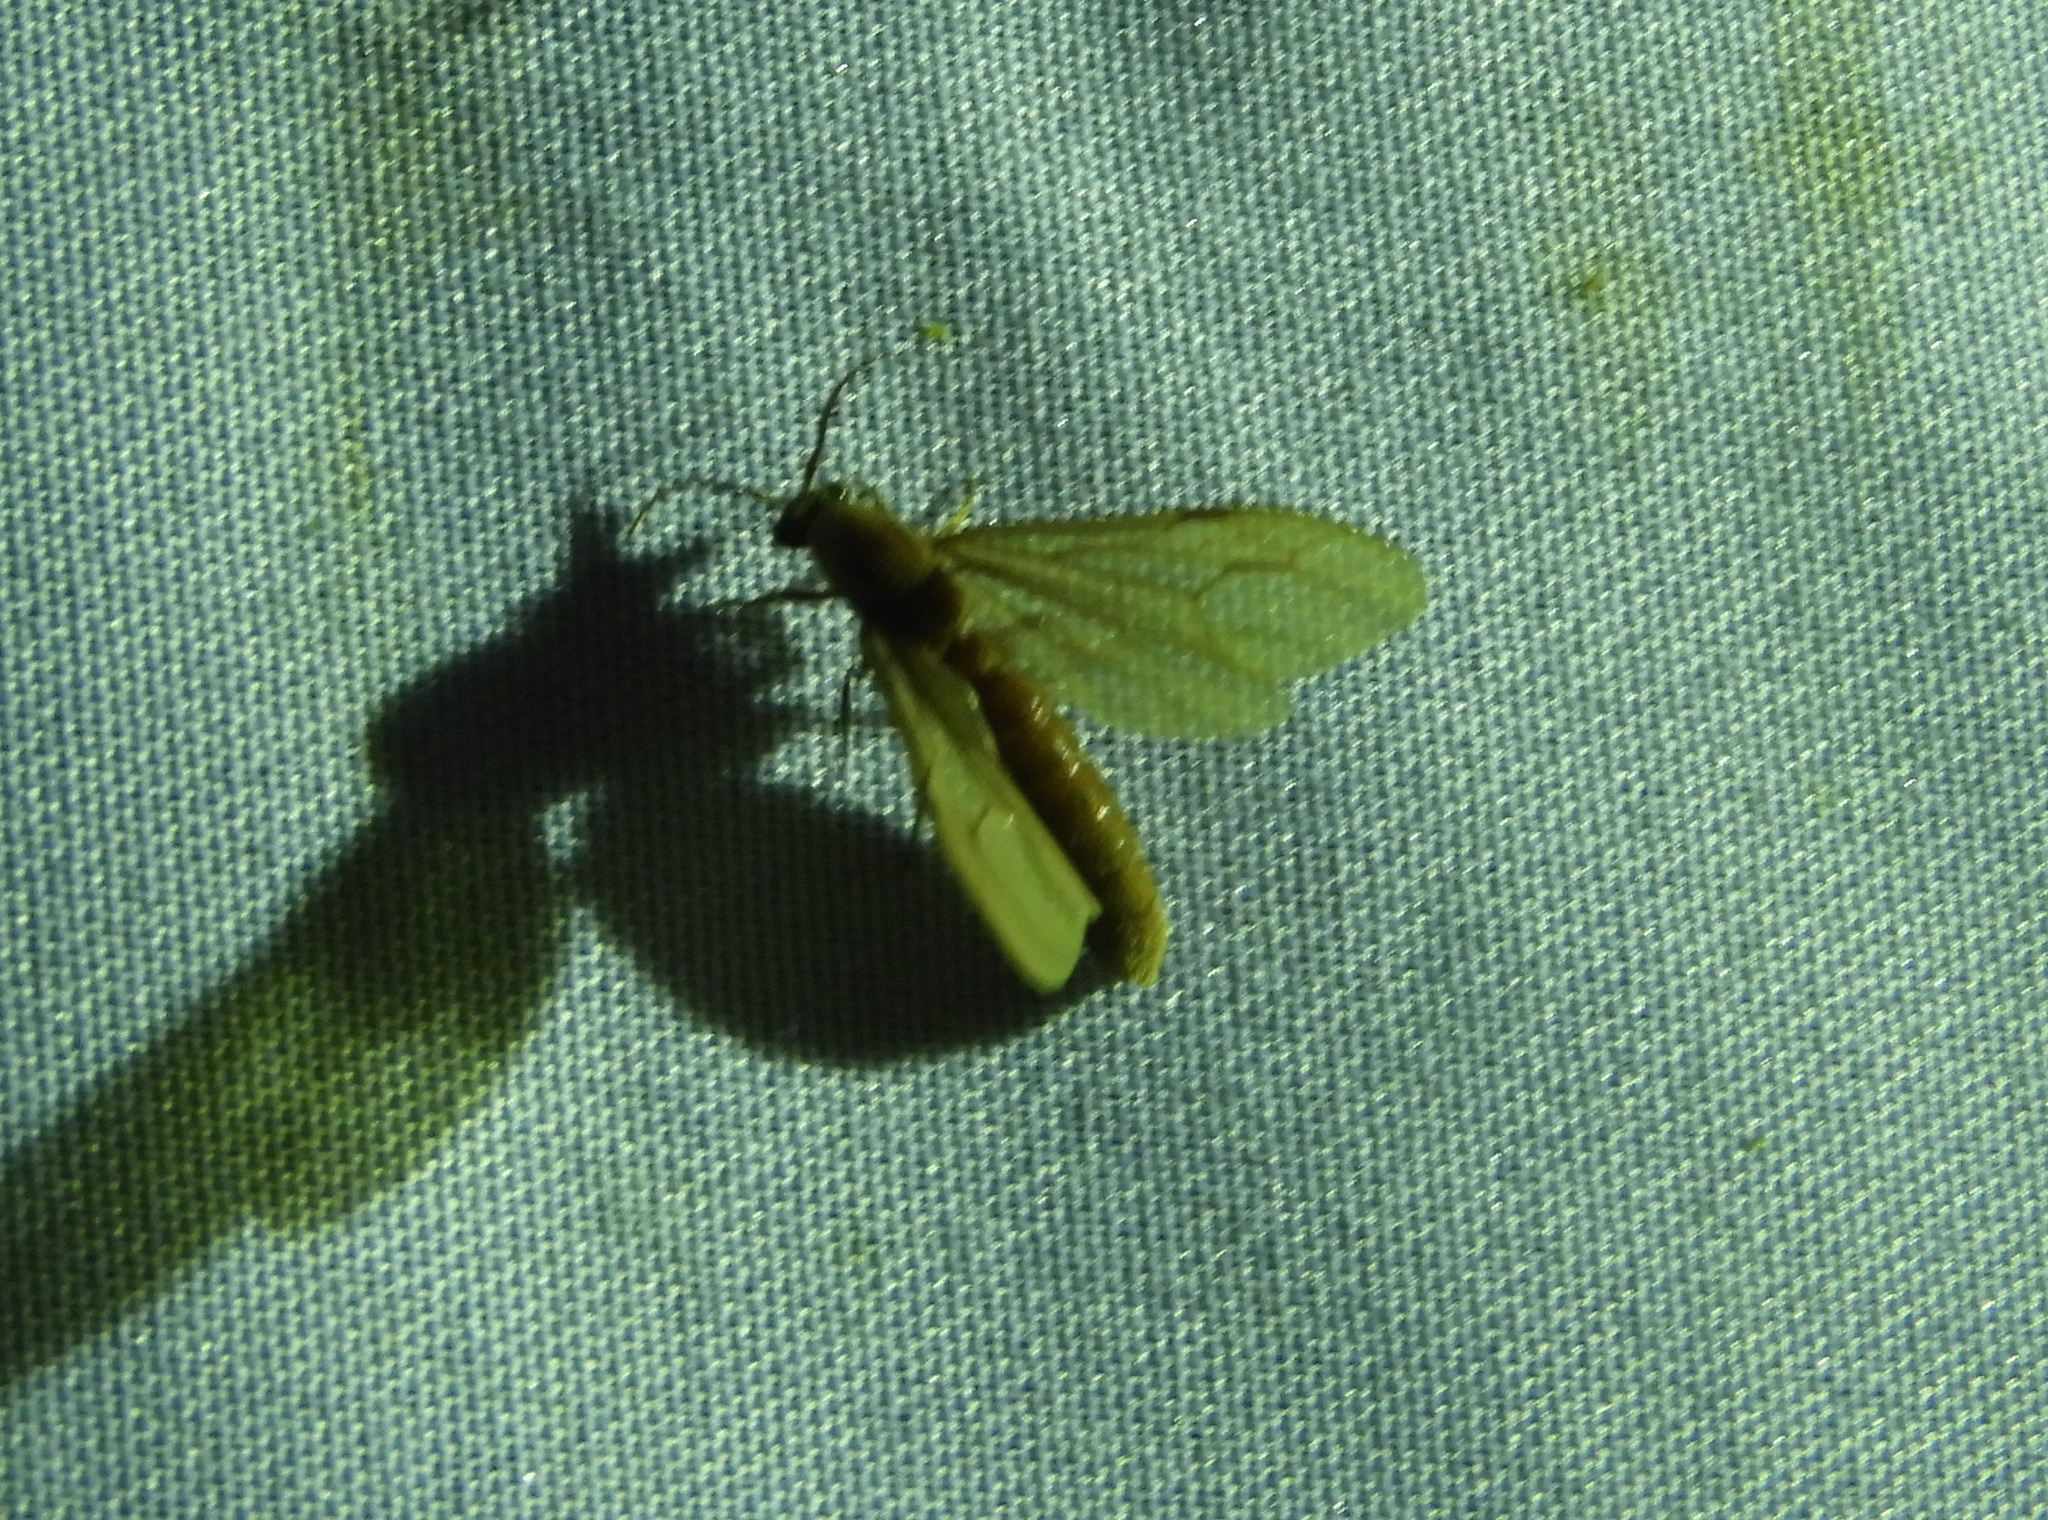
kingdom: Animalia
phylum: Arthropoda
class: Insecta
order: Hymenoptera
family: Formicidae
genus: Neivamyrmex
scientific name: Neivamyrmex
